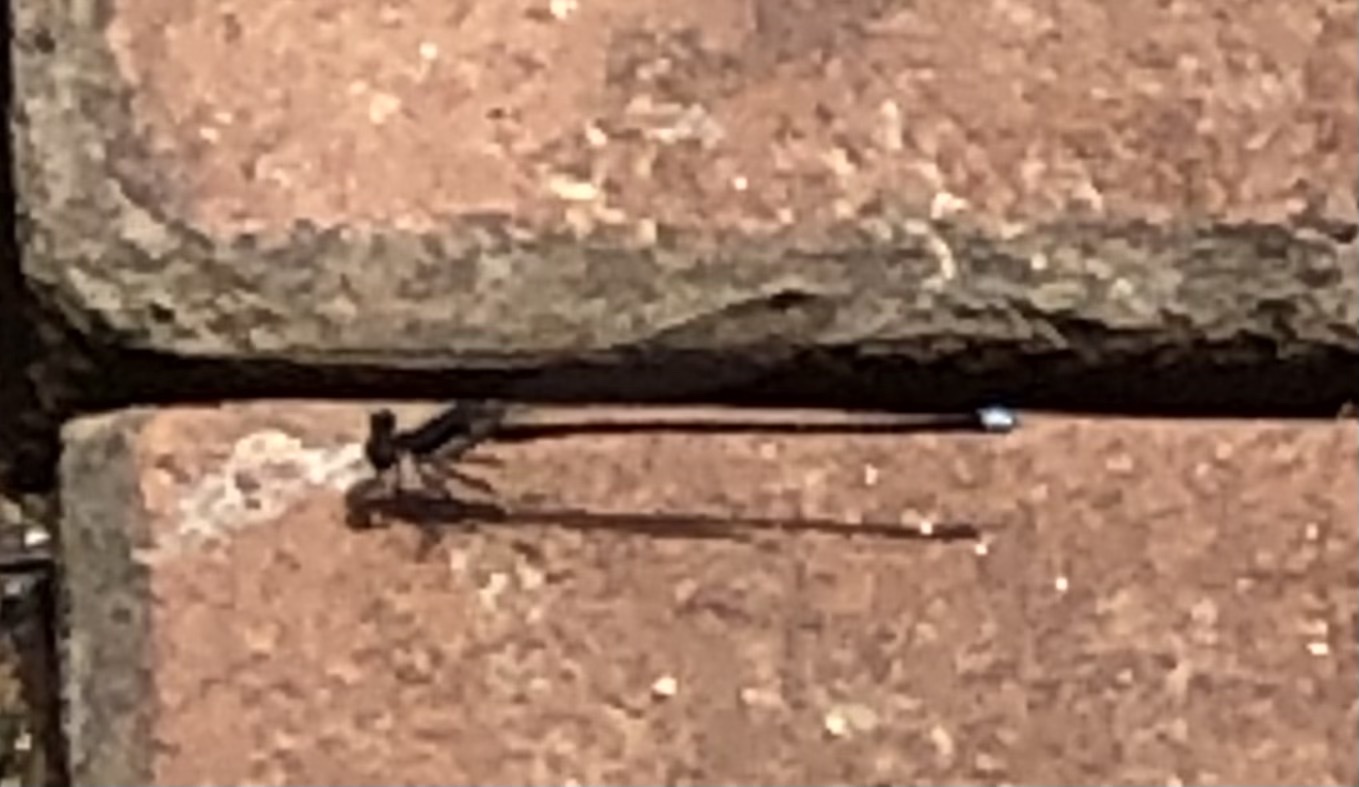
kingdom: Animalia
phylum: Arthropoda
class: Insecta
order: Odonata
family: Coenagrionidae
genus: Argia
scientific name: Argia tibialis
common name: Blue-tipped dancer
